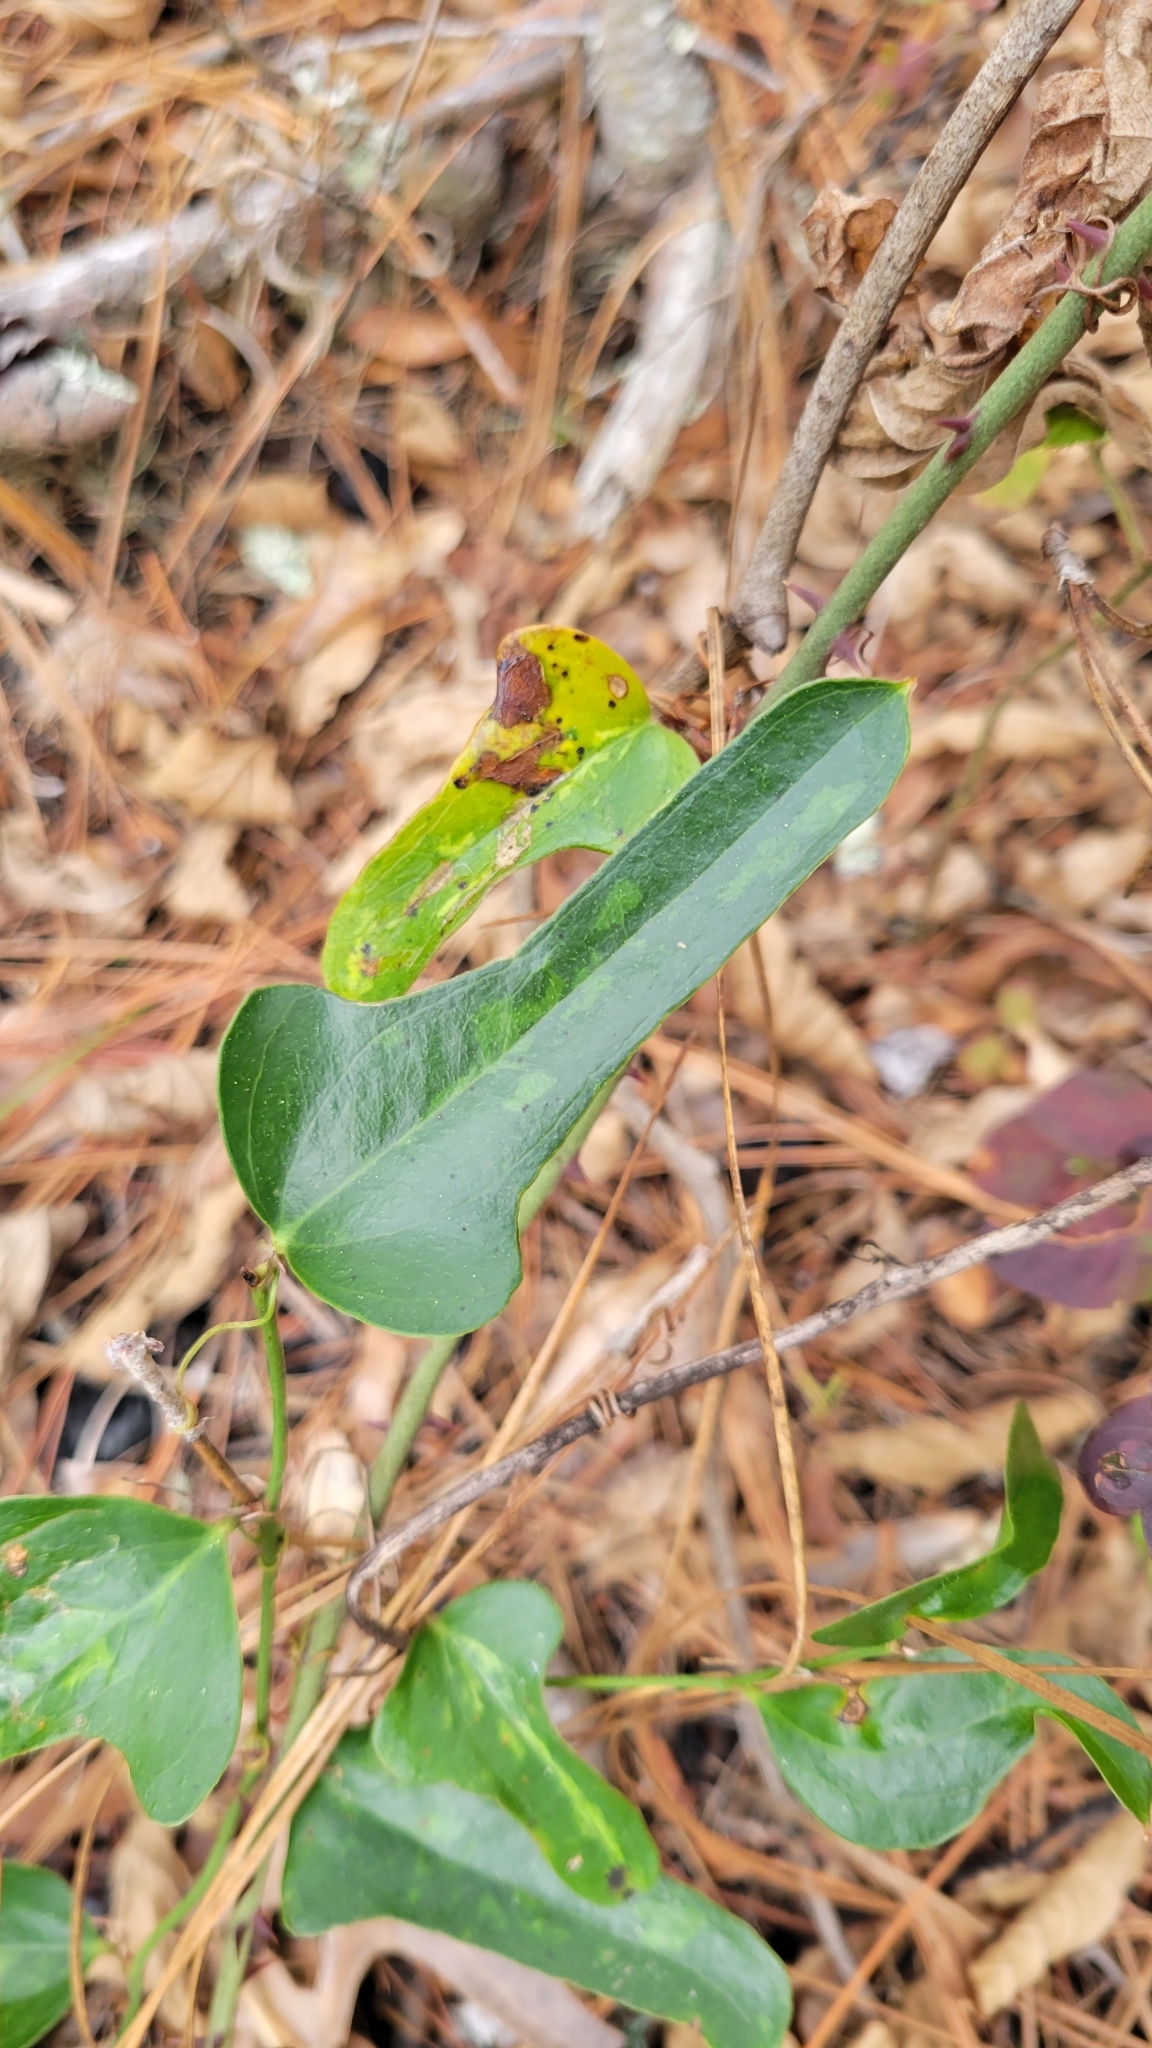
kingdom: Plantae
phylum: Tracheophyta
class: Liliopsida
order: Liliales
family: Smilacaceae
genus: Smilax
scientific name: Smilax auriculata
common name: Wild bamboo
